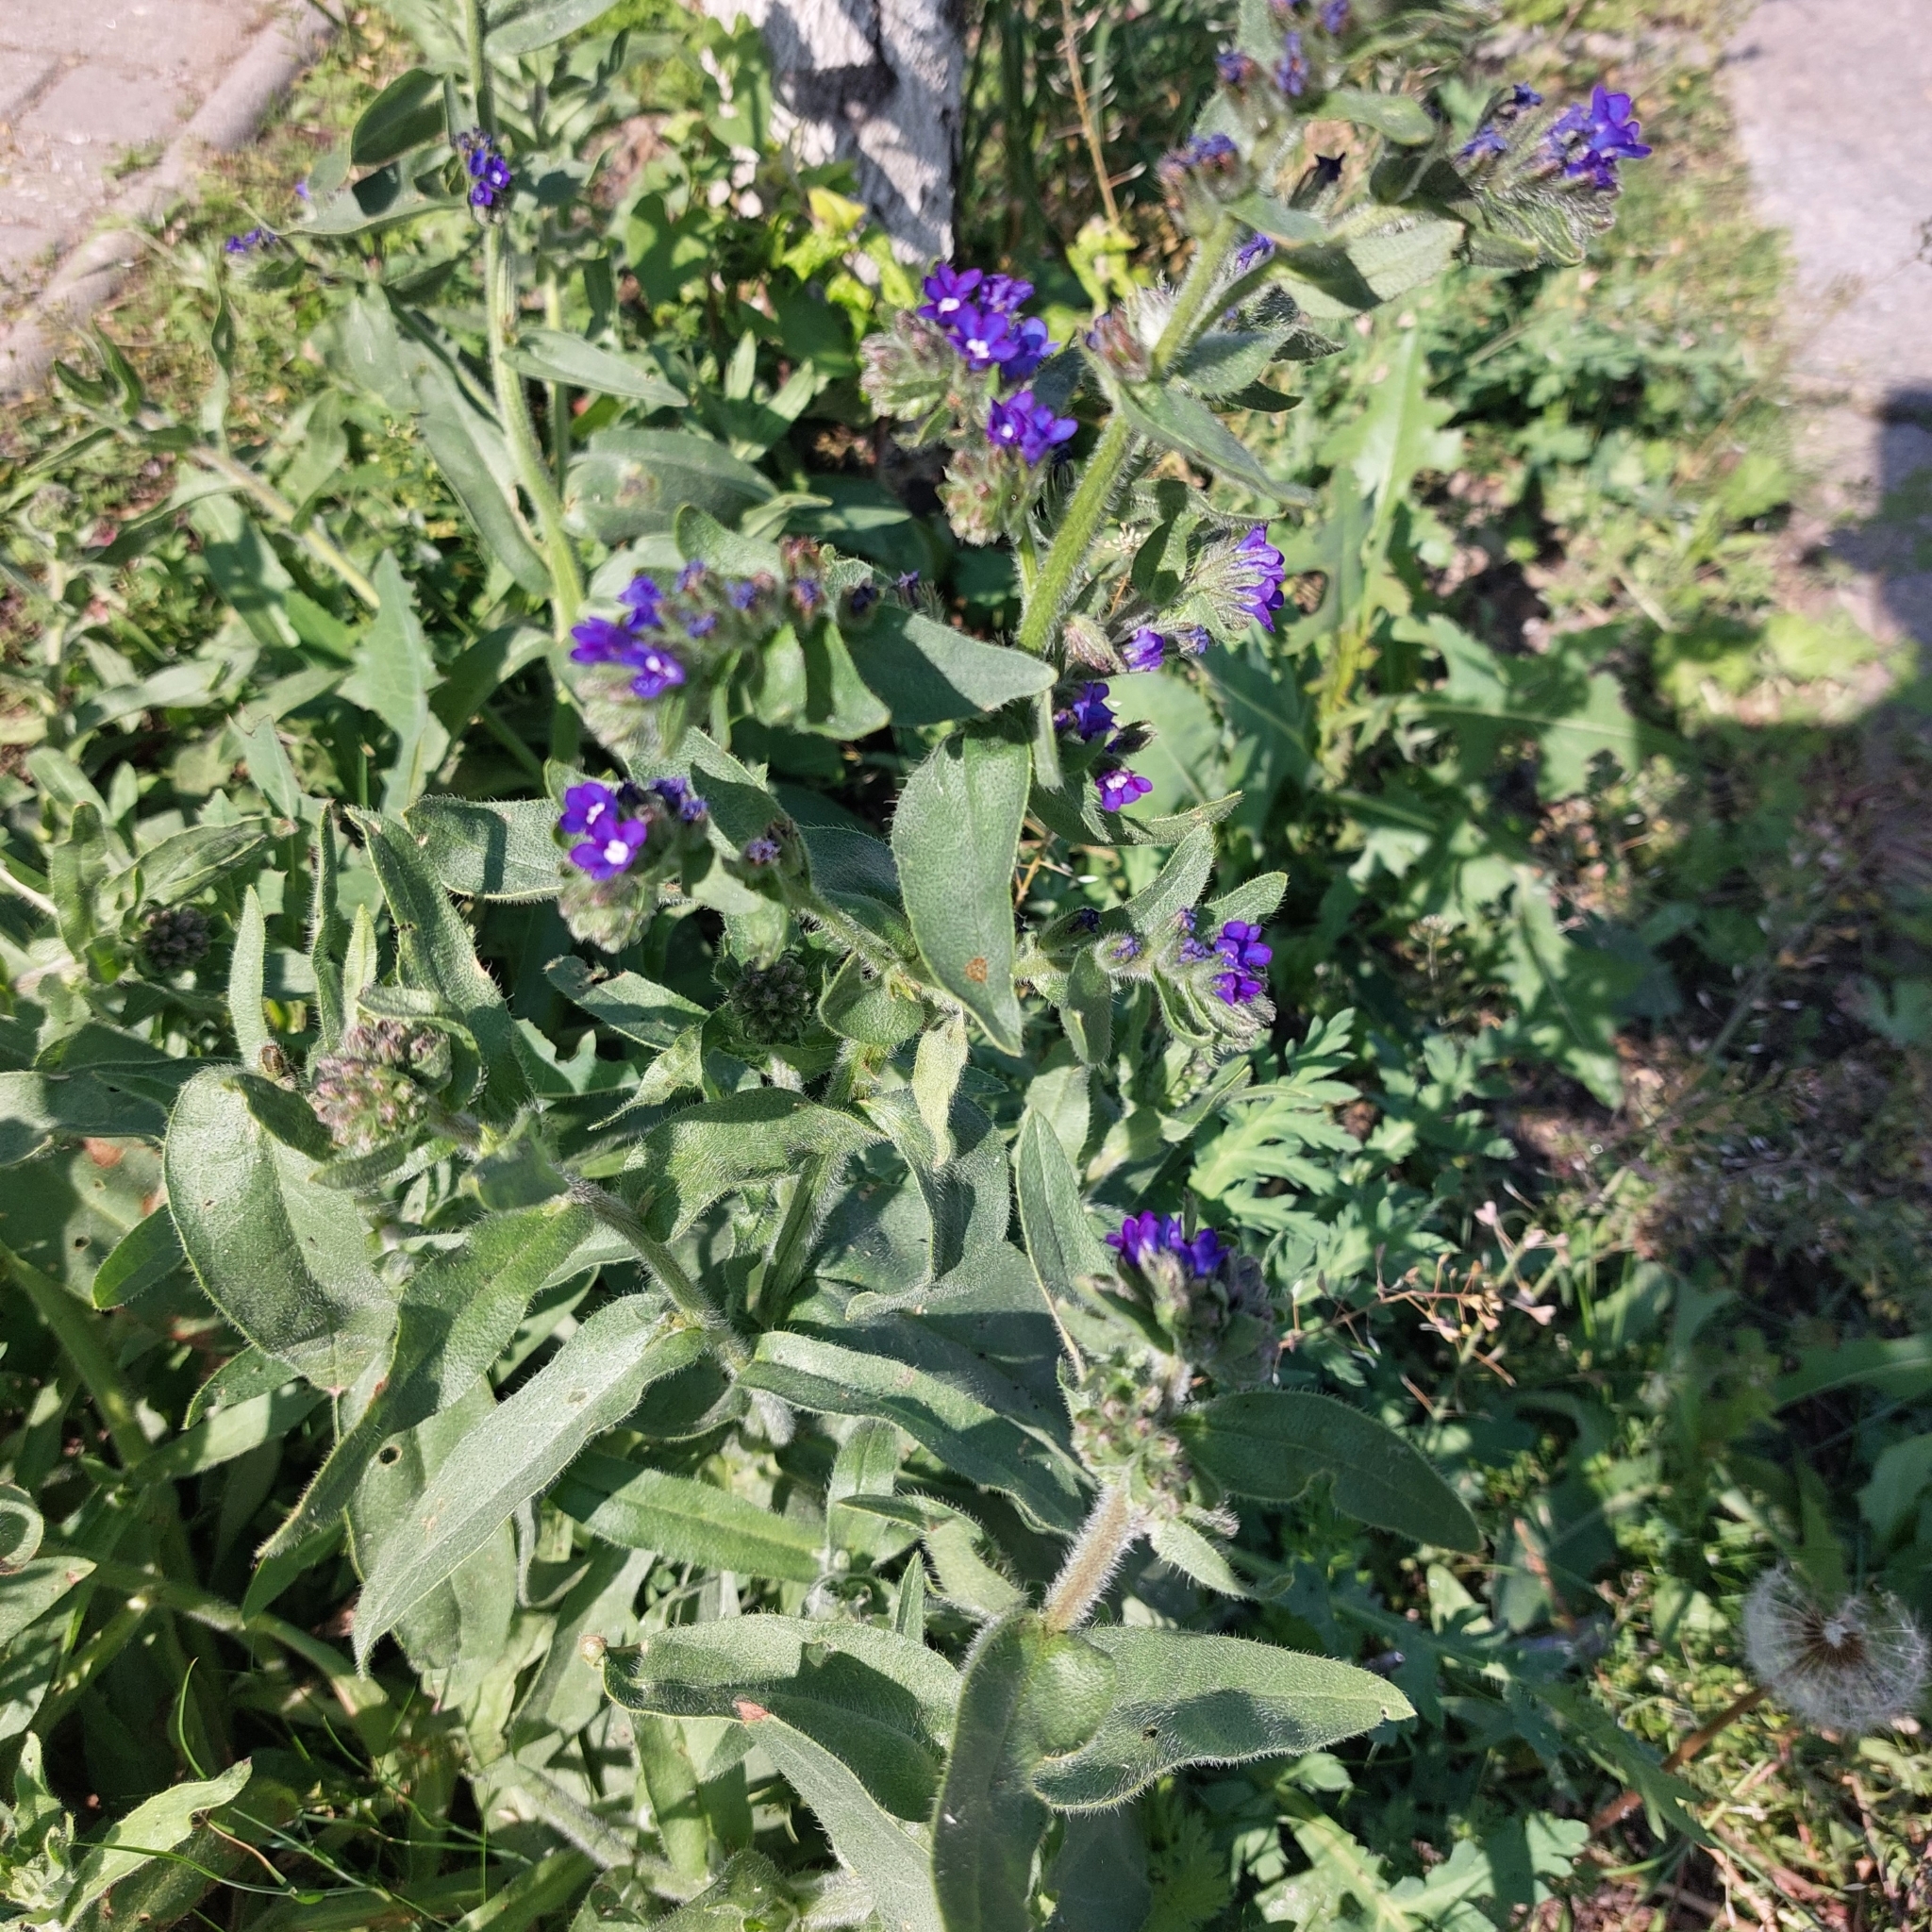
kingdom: Plantae
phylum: Tracheophyta
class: Magnoliopsida
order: Boraginales
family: Boraginaceae
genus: Anchusa
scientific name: Anchusa officinalis
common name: Alkanet
